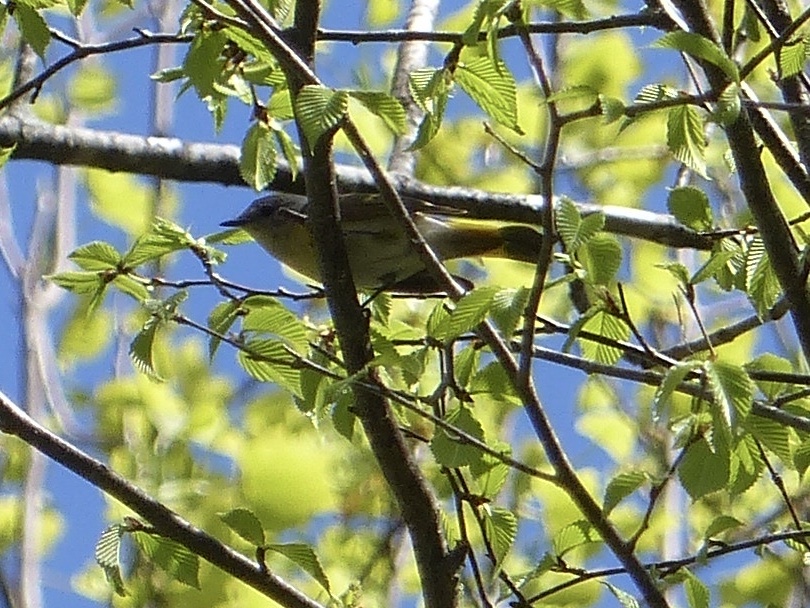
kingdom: Animalia
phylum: Chordata
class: Aves
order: Passeriformes
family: Parulidae
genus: Setophaga
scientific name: Setophaga ruticilla
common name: American redstart
